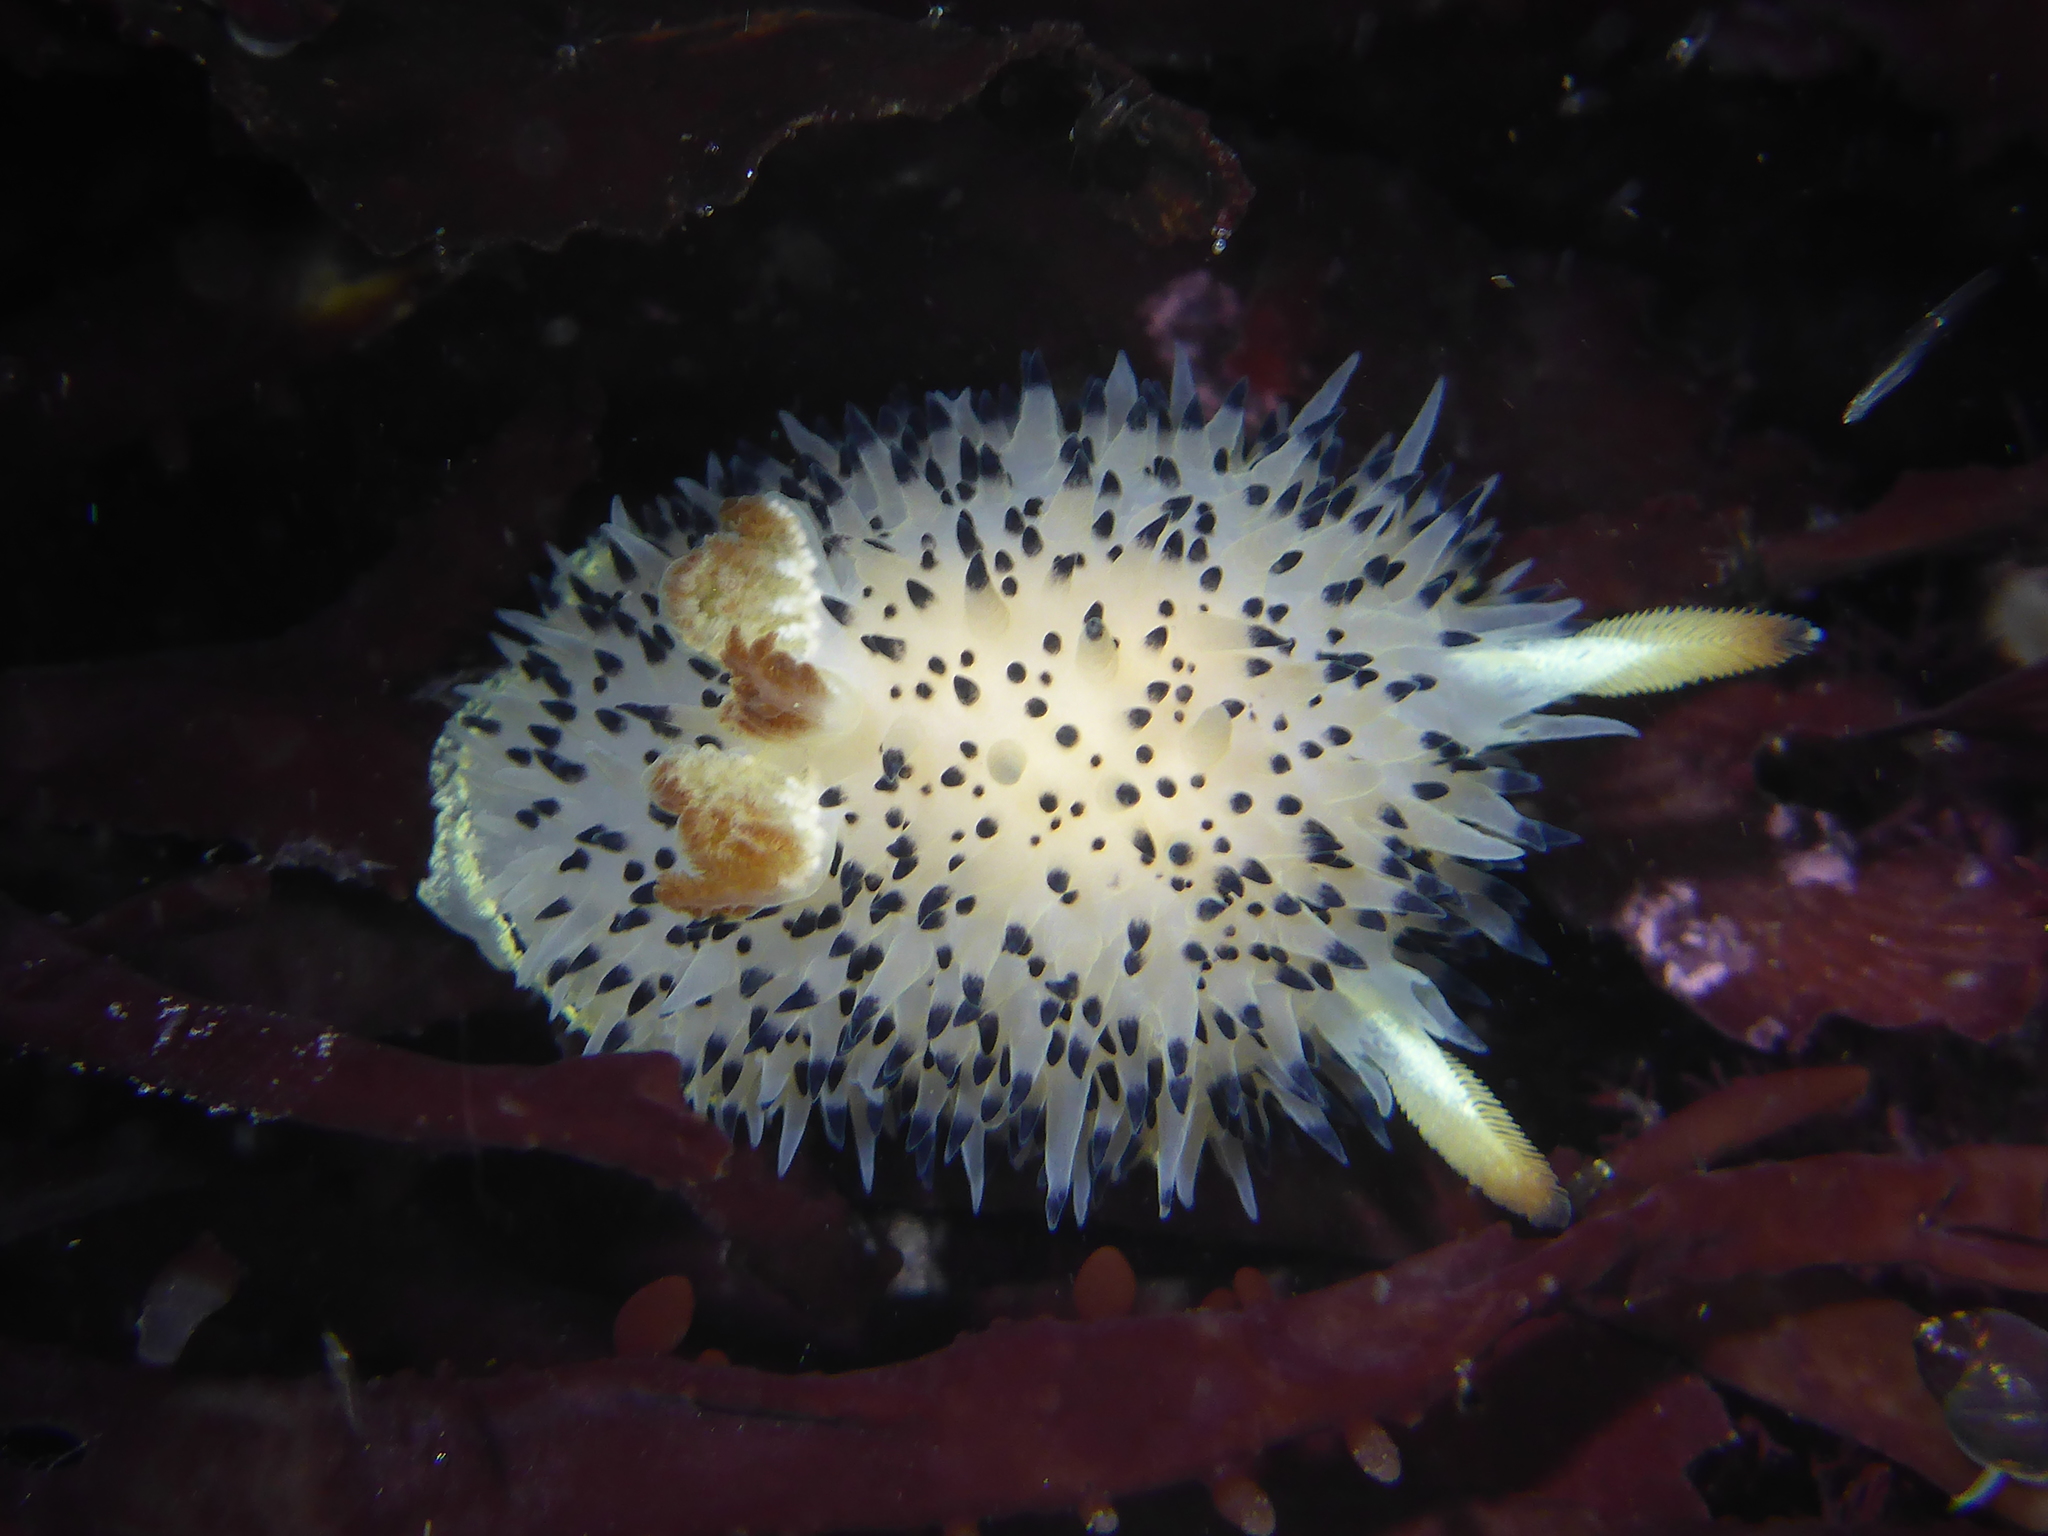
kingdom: Animalia
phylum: Mollusca
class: Gastropoda
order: Nudibranchia
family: Onchidorididae
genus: Acanthodoris
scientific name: Acanthodoris rhodoceras
